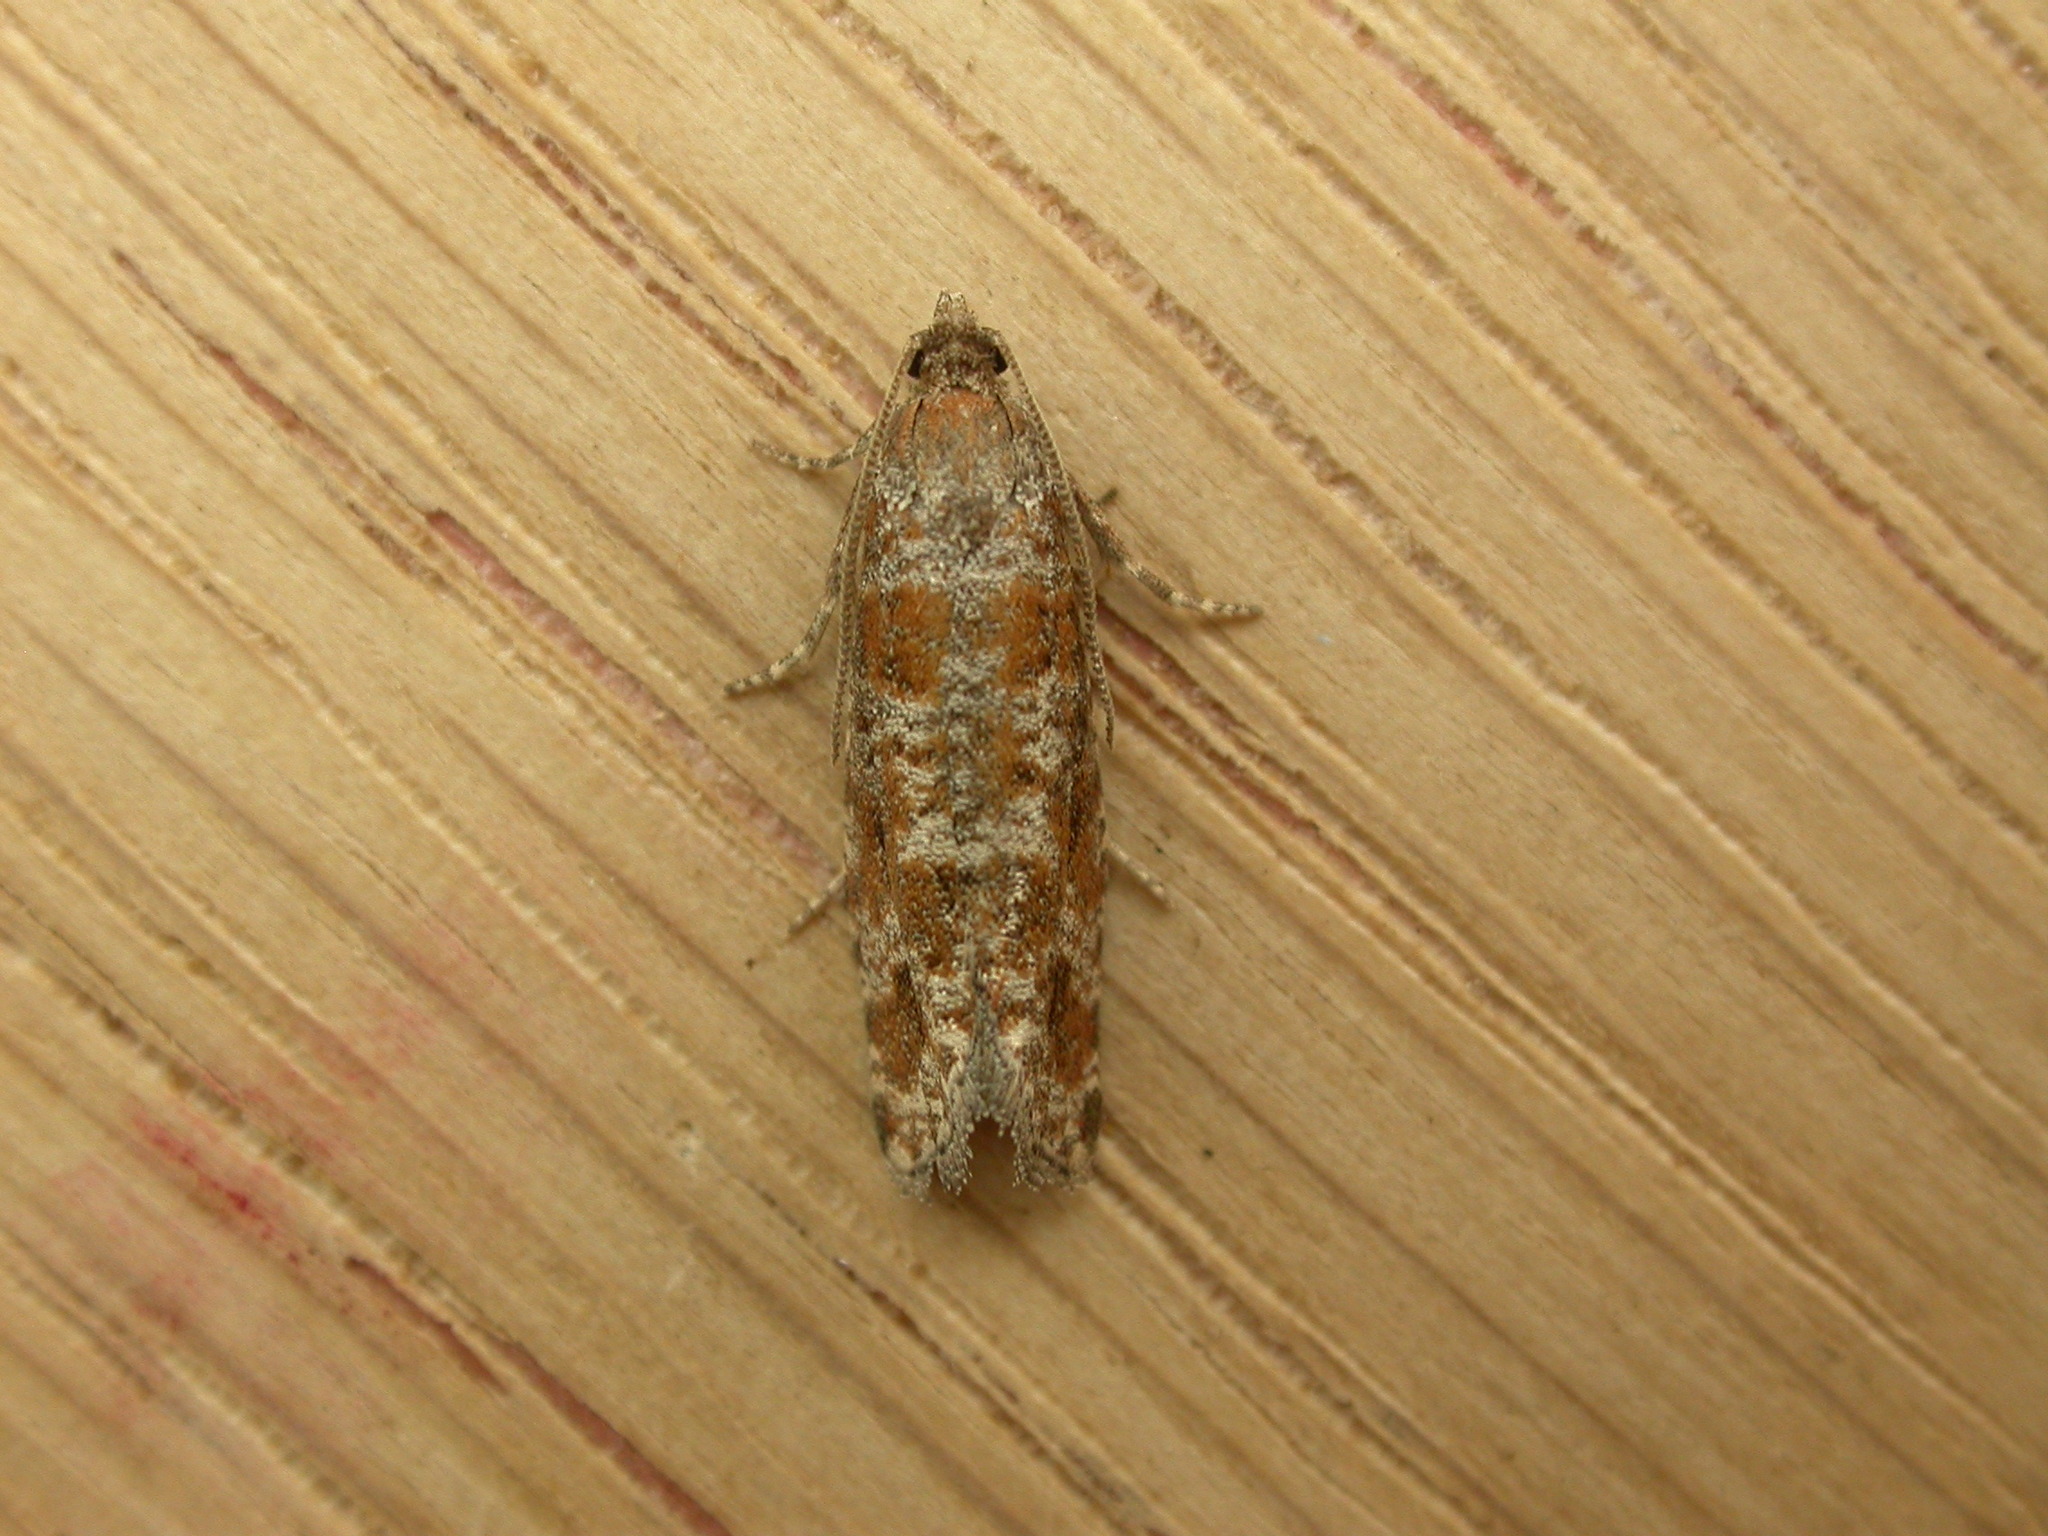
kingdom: Animalia
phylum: Arthropoda
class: Insecta
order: Lepidoptera
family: Tortricidae
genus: Rhyacionia
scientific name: Rhyacionia pinivorana
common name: Spotted shoot moth
